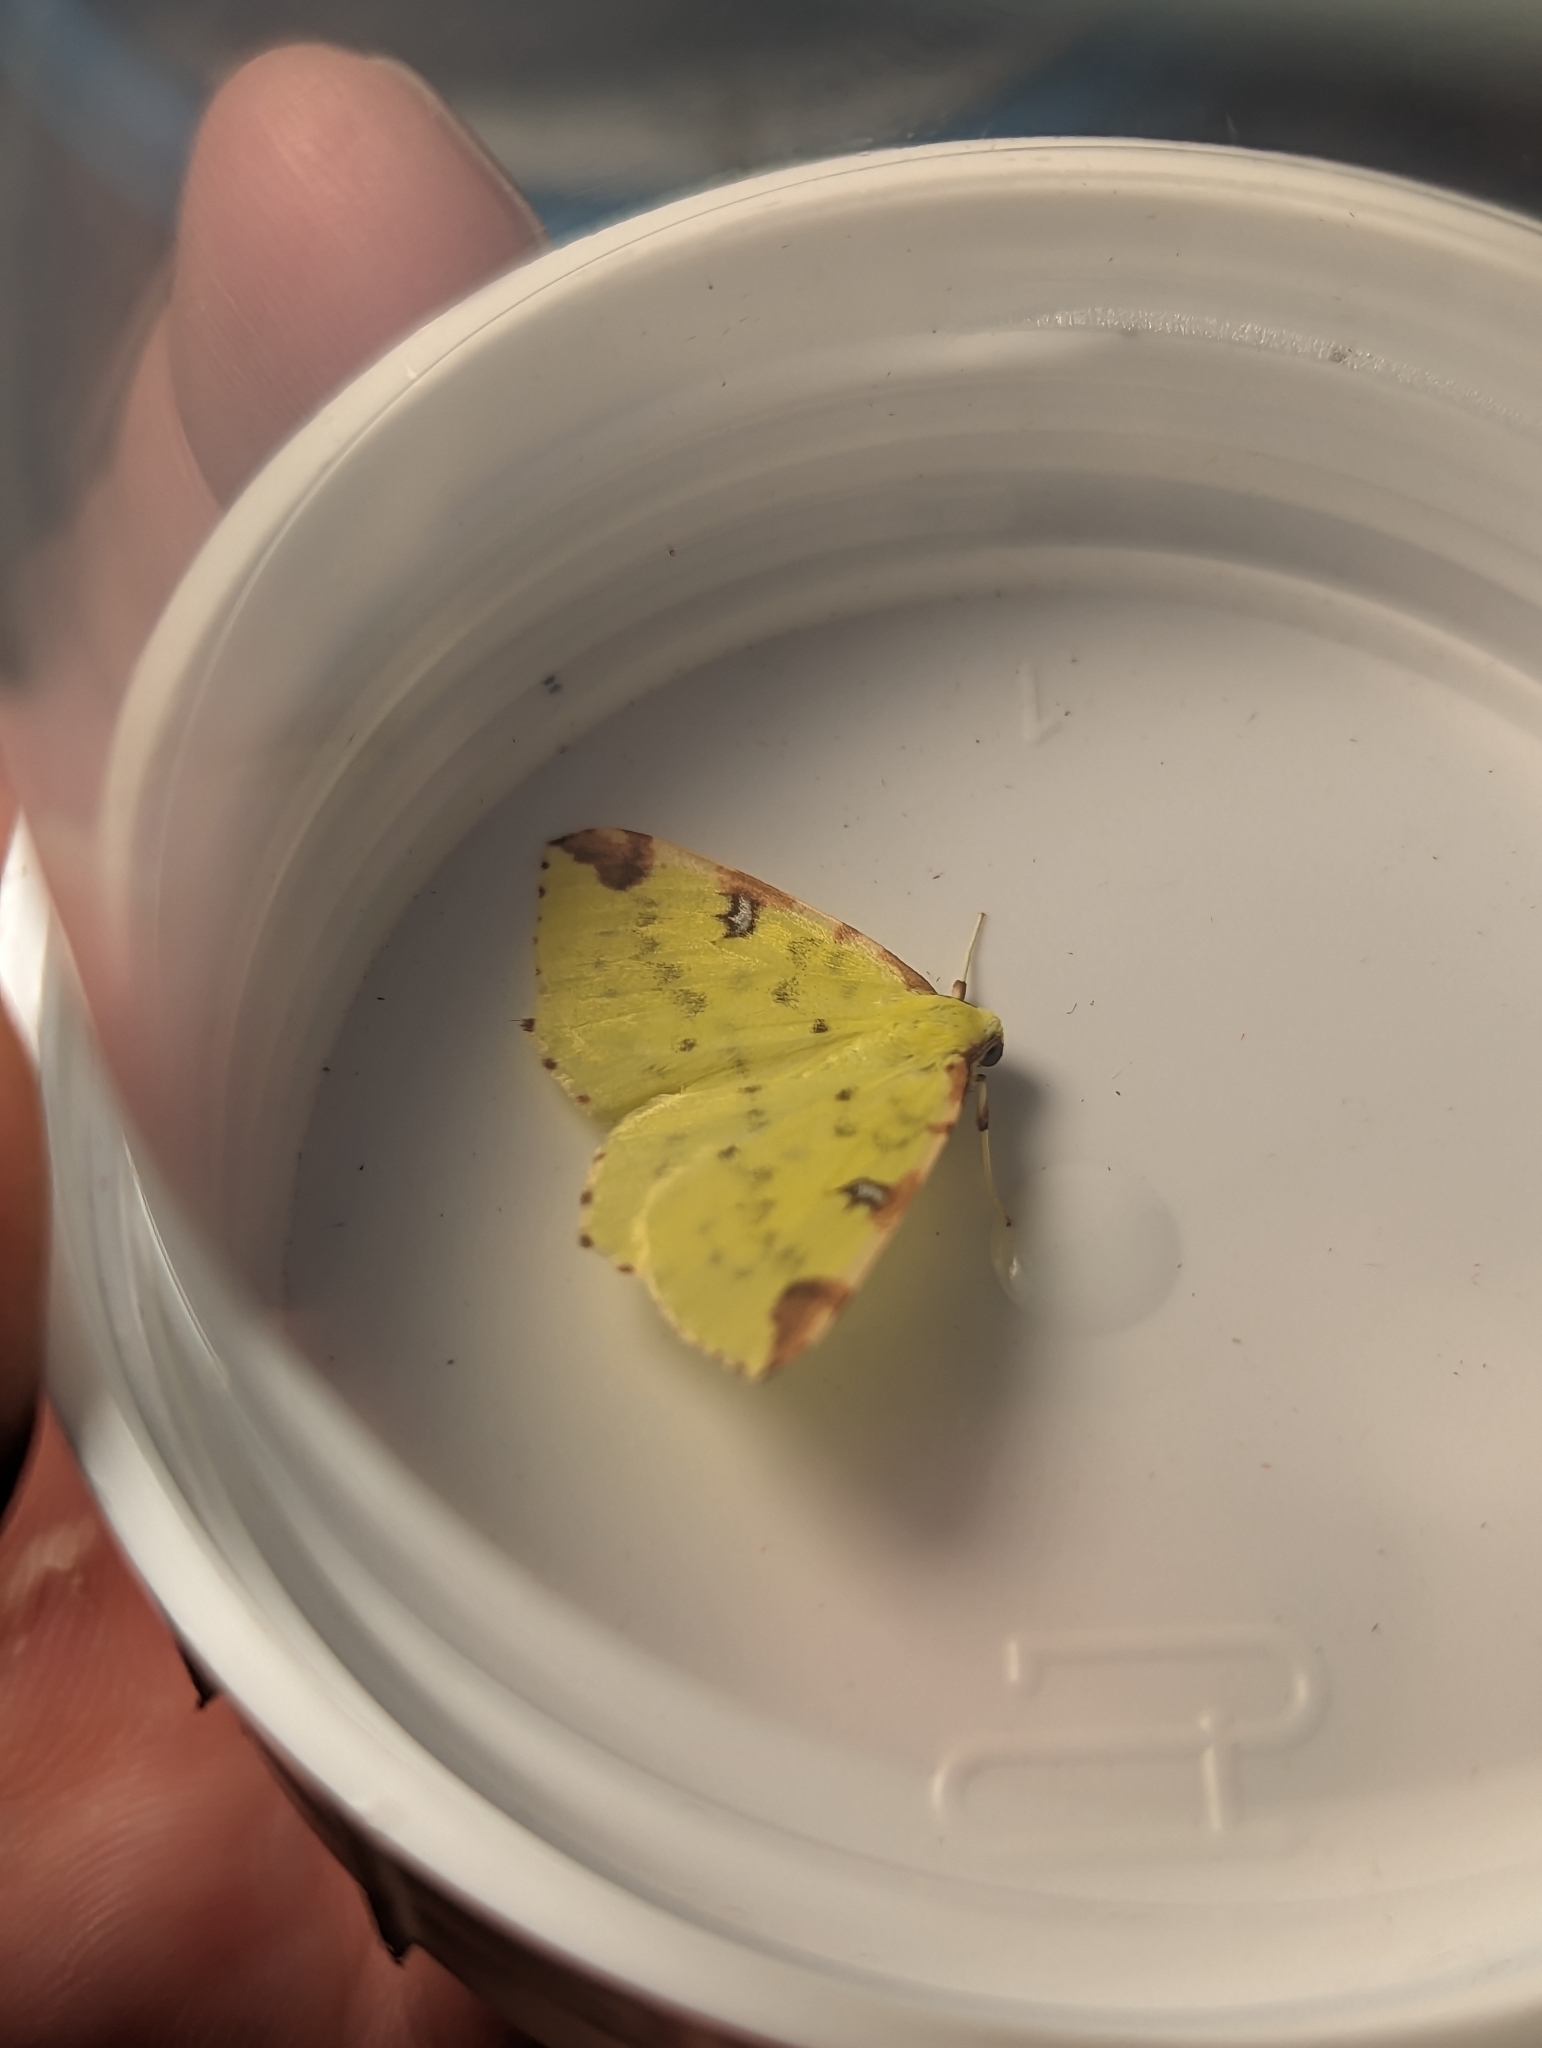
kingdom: Animalia
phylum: Arthropoda
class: Insecta
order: Lepidoptera
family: Geometridae
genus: Opisthograptis
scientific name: Opisthograptis luteolata
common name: Brimstone moth
